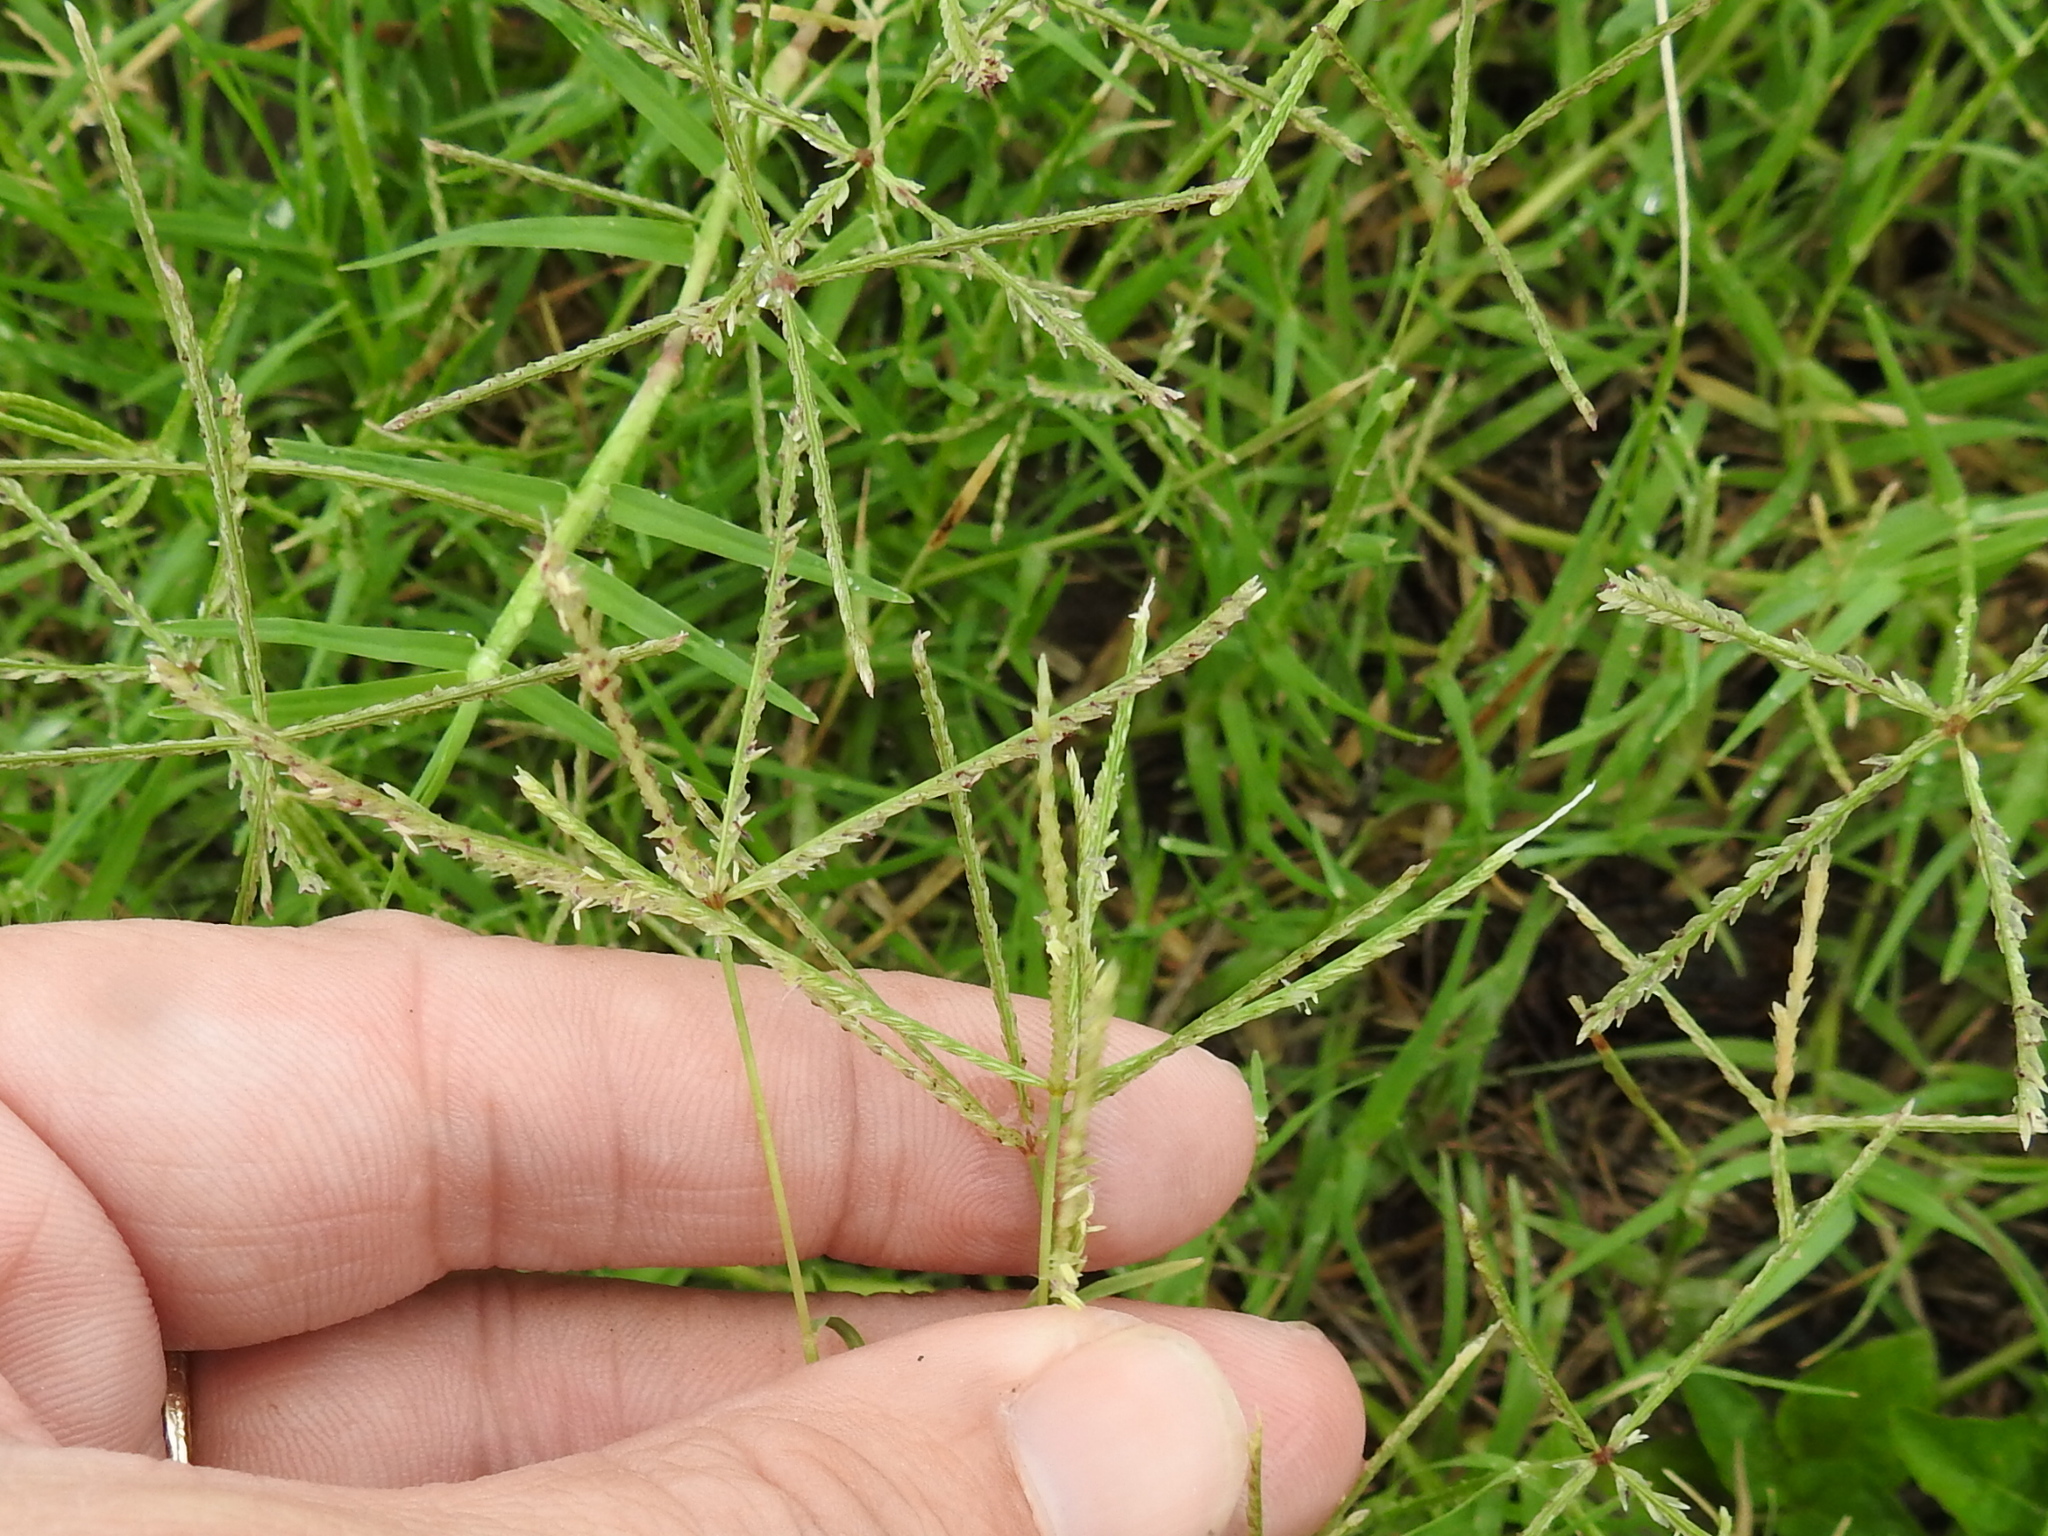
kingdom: Plantae
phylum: Tracheophyta
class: Liliopsida
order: Poales
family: Poaceae
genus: Cynodon
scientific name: Cynodon dactylon
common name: Bermuda grass
